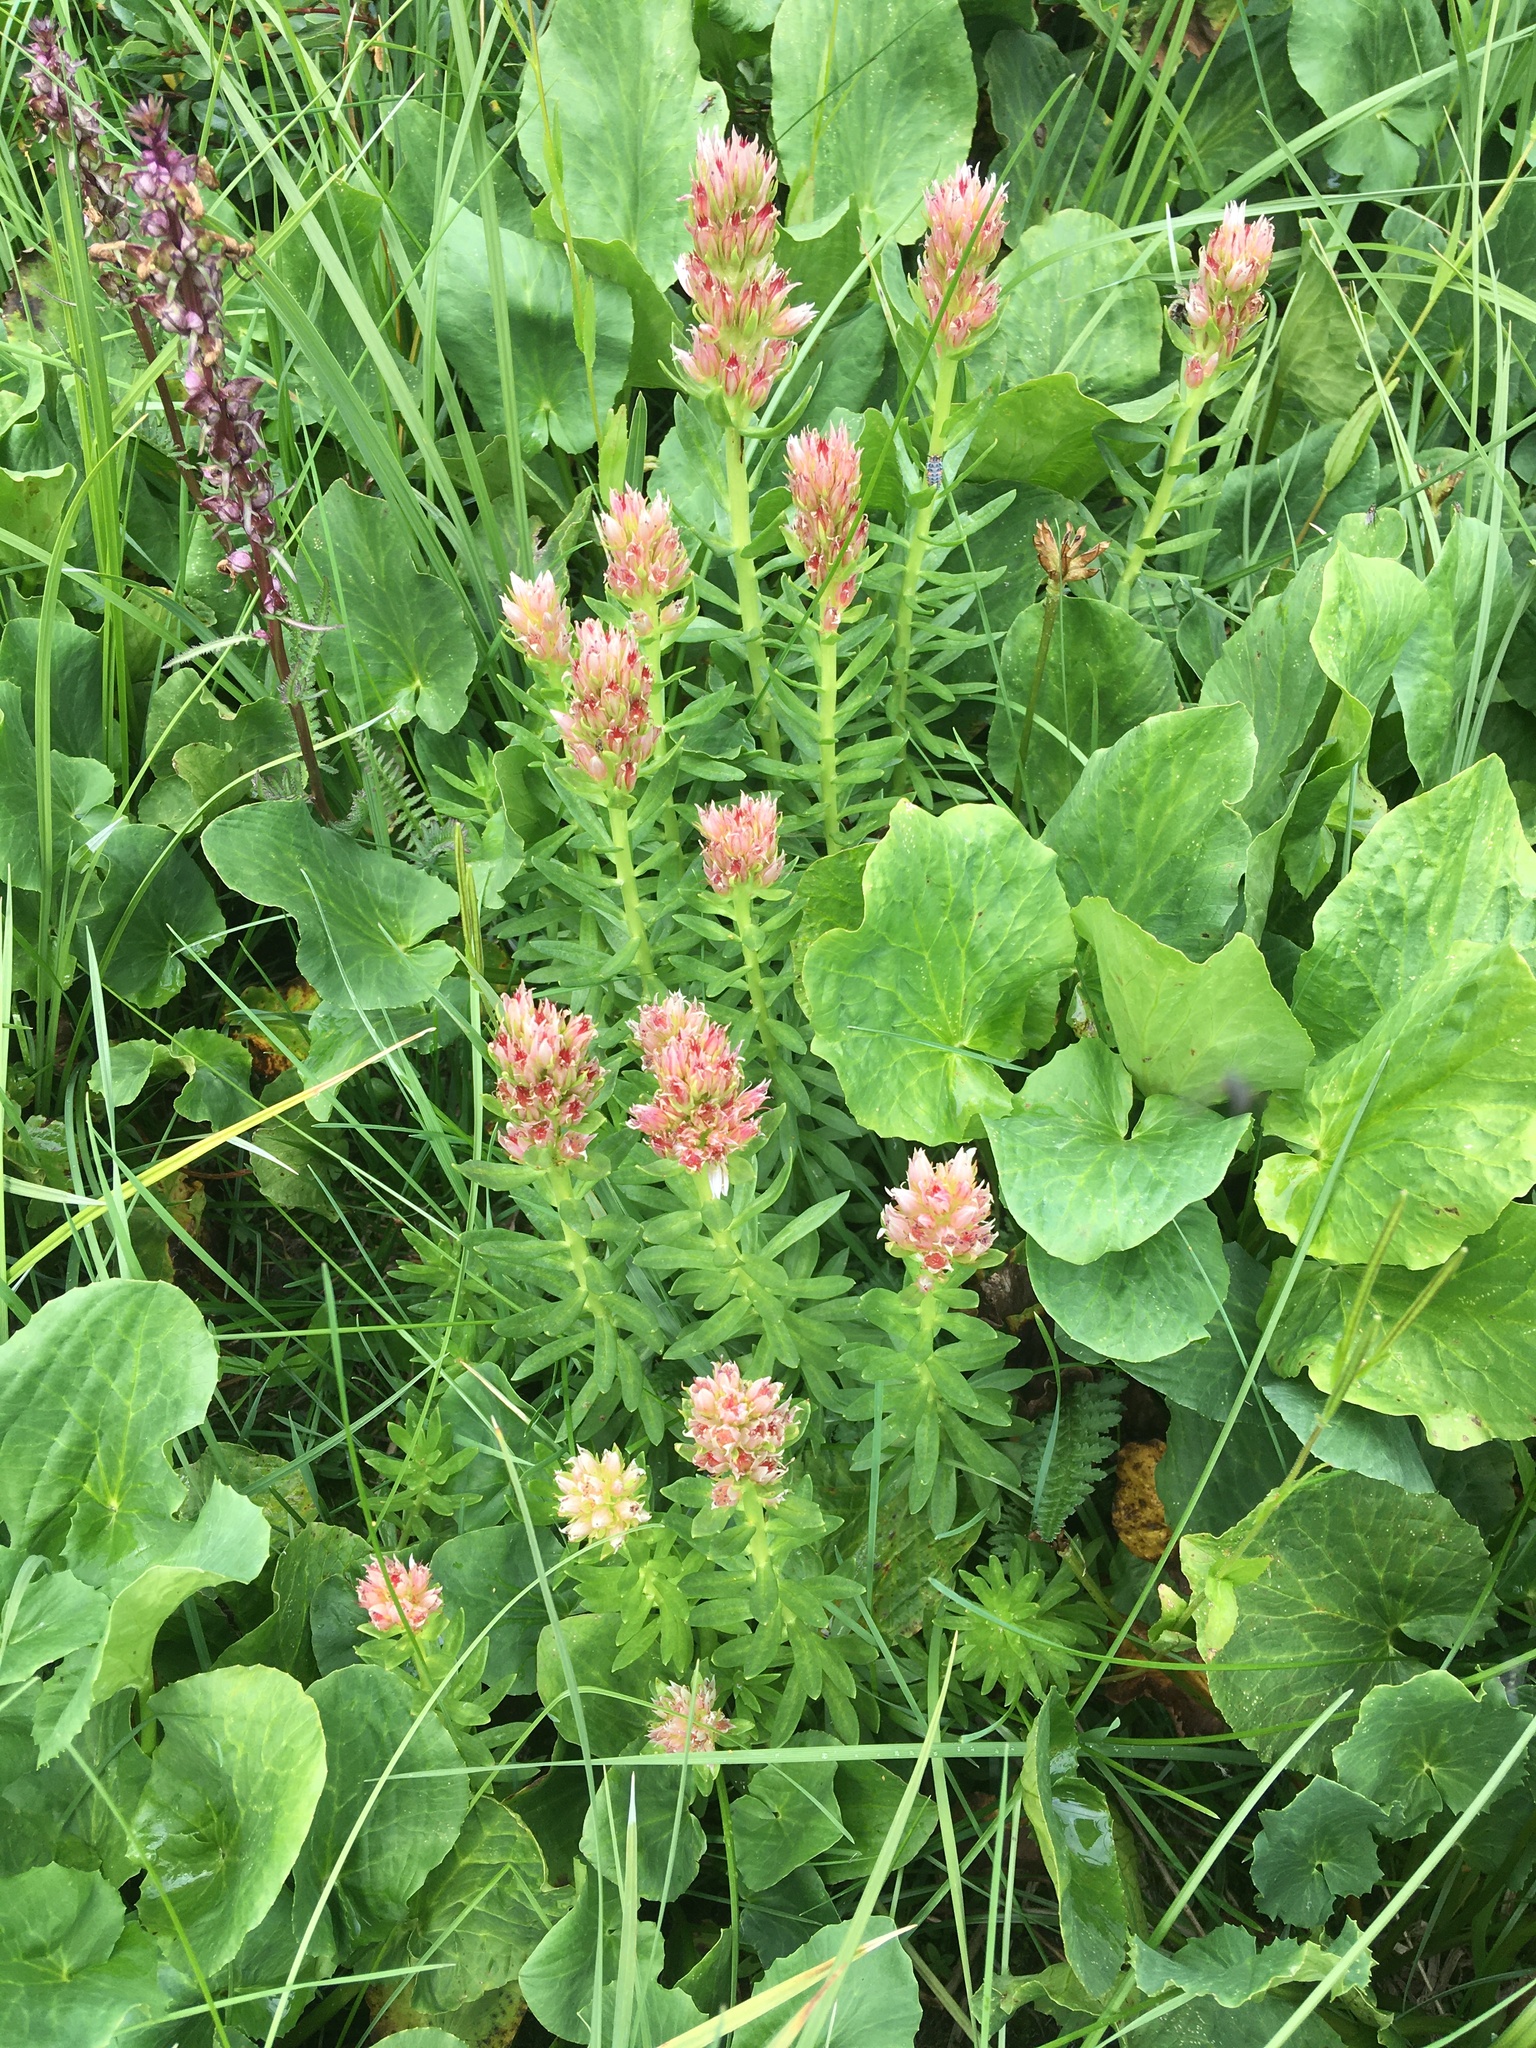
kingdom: Plantae
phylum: Tracheophyta
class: Magnoliopsida
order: Saxifragales
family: Crassulaceae
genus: Rhodiola
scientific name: Rhodiola rhodantha
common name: Red orpine
